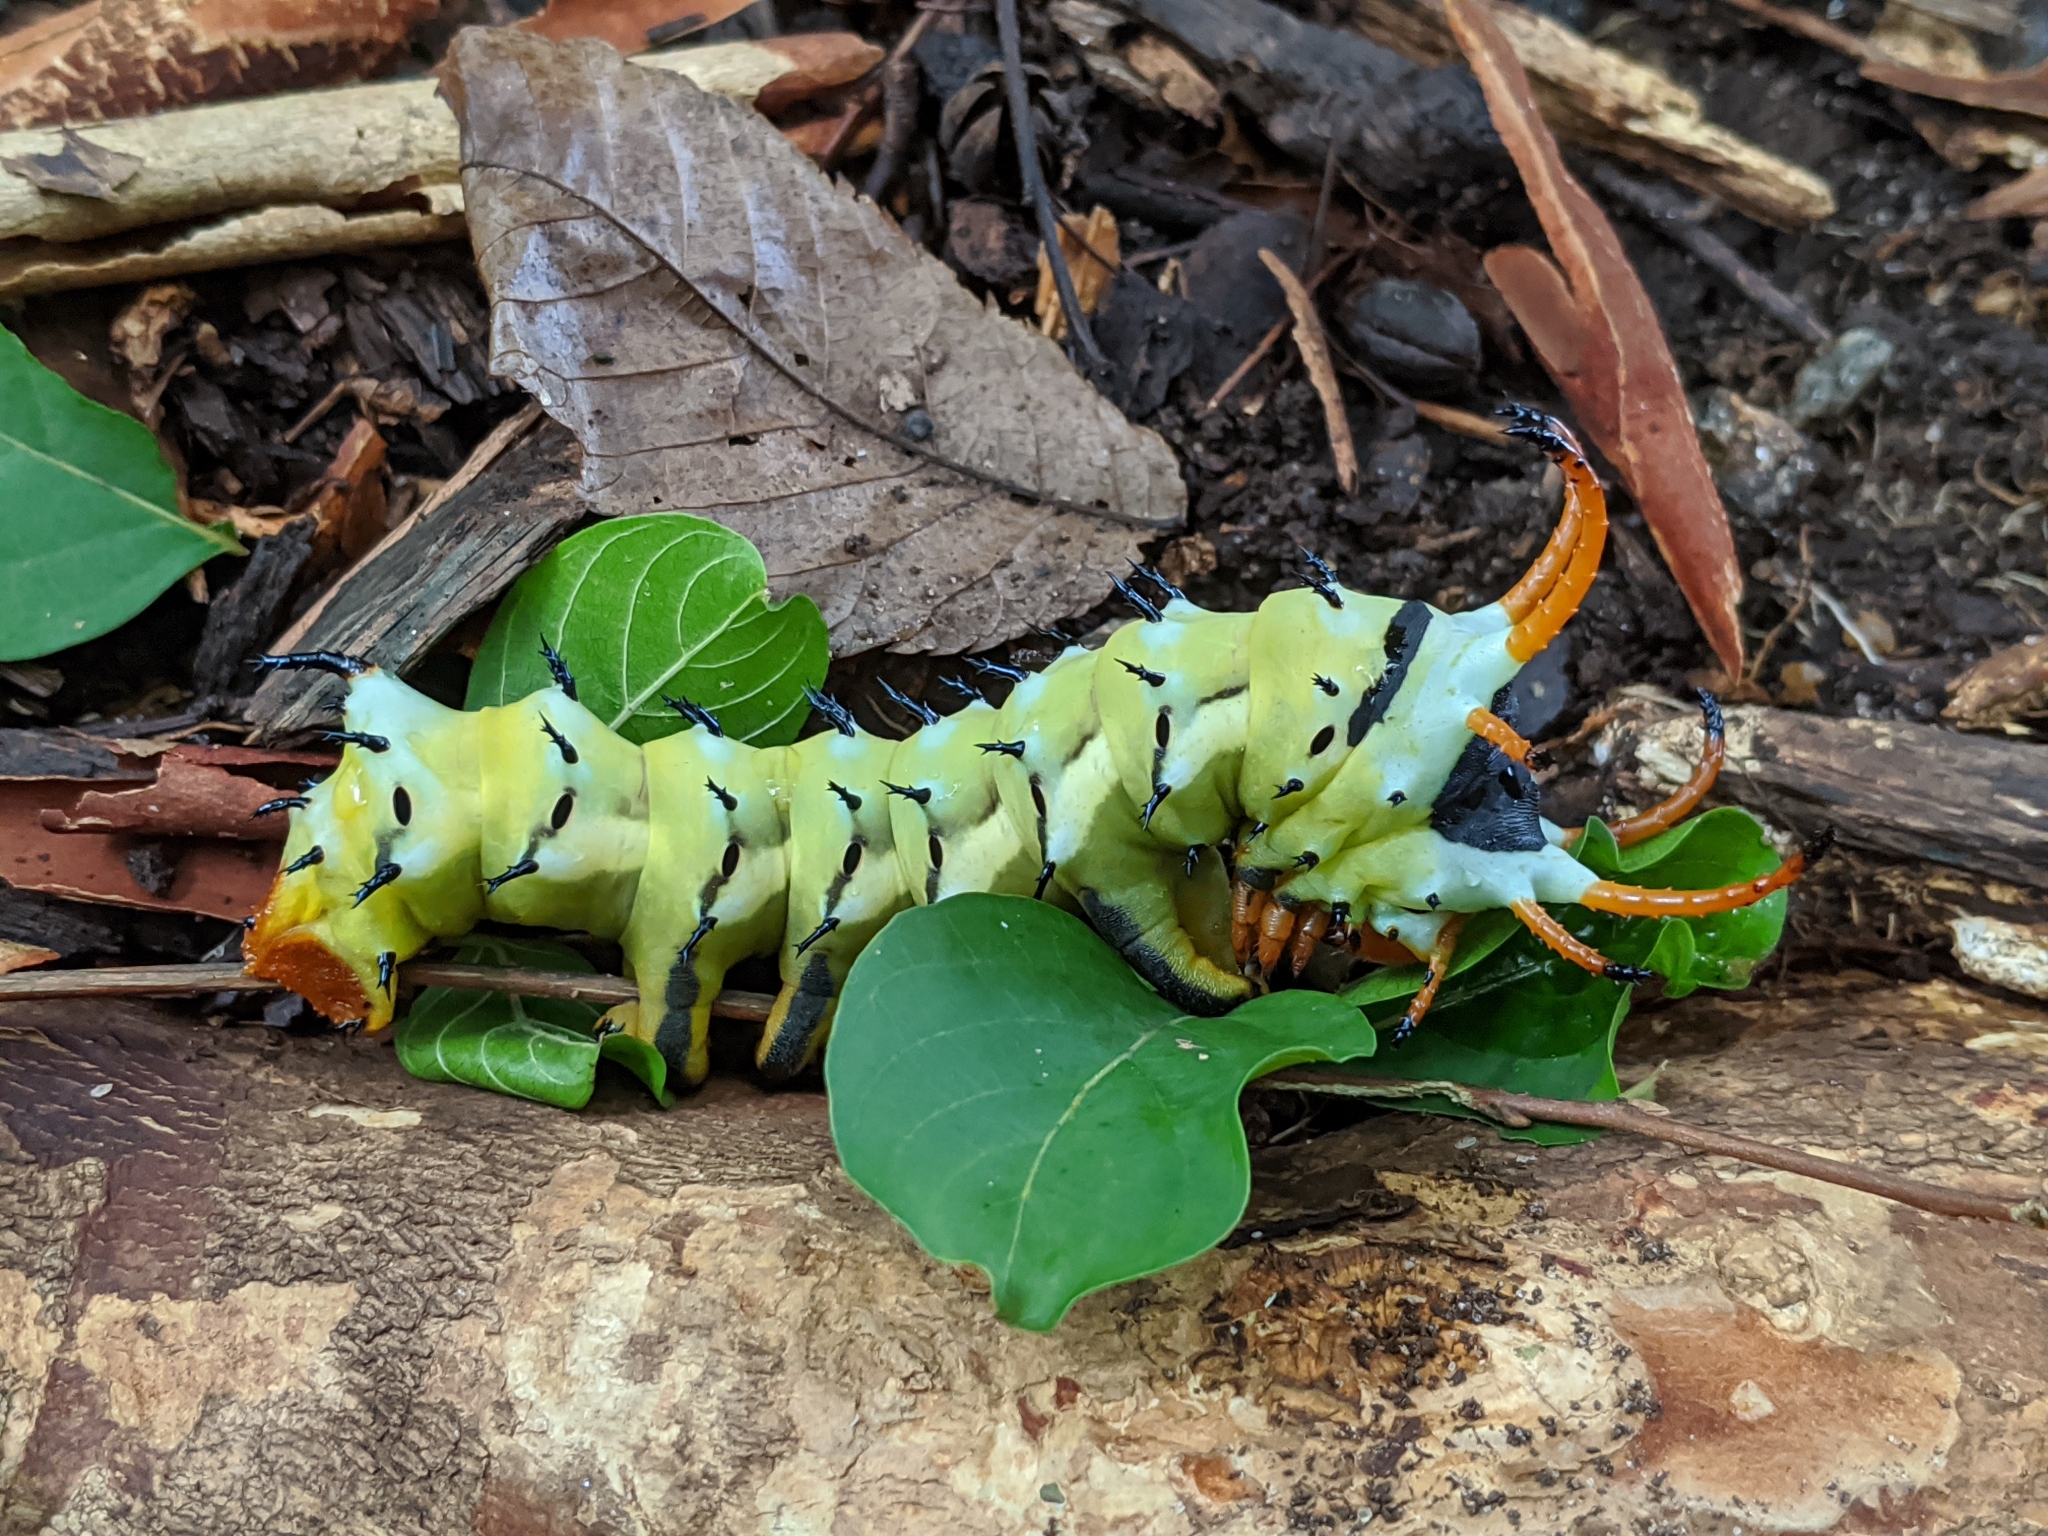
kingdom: Animalia
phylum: Arthropoda
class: Insecta
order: Lepidoptera
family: Saturniidae
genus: Citheronia
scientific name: Citheronia regalis
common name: Hickory horned devil
